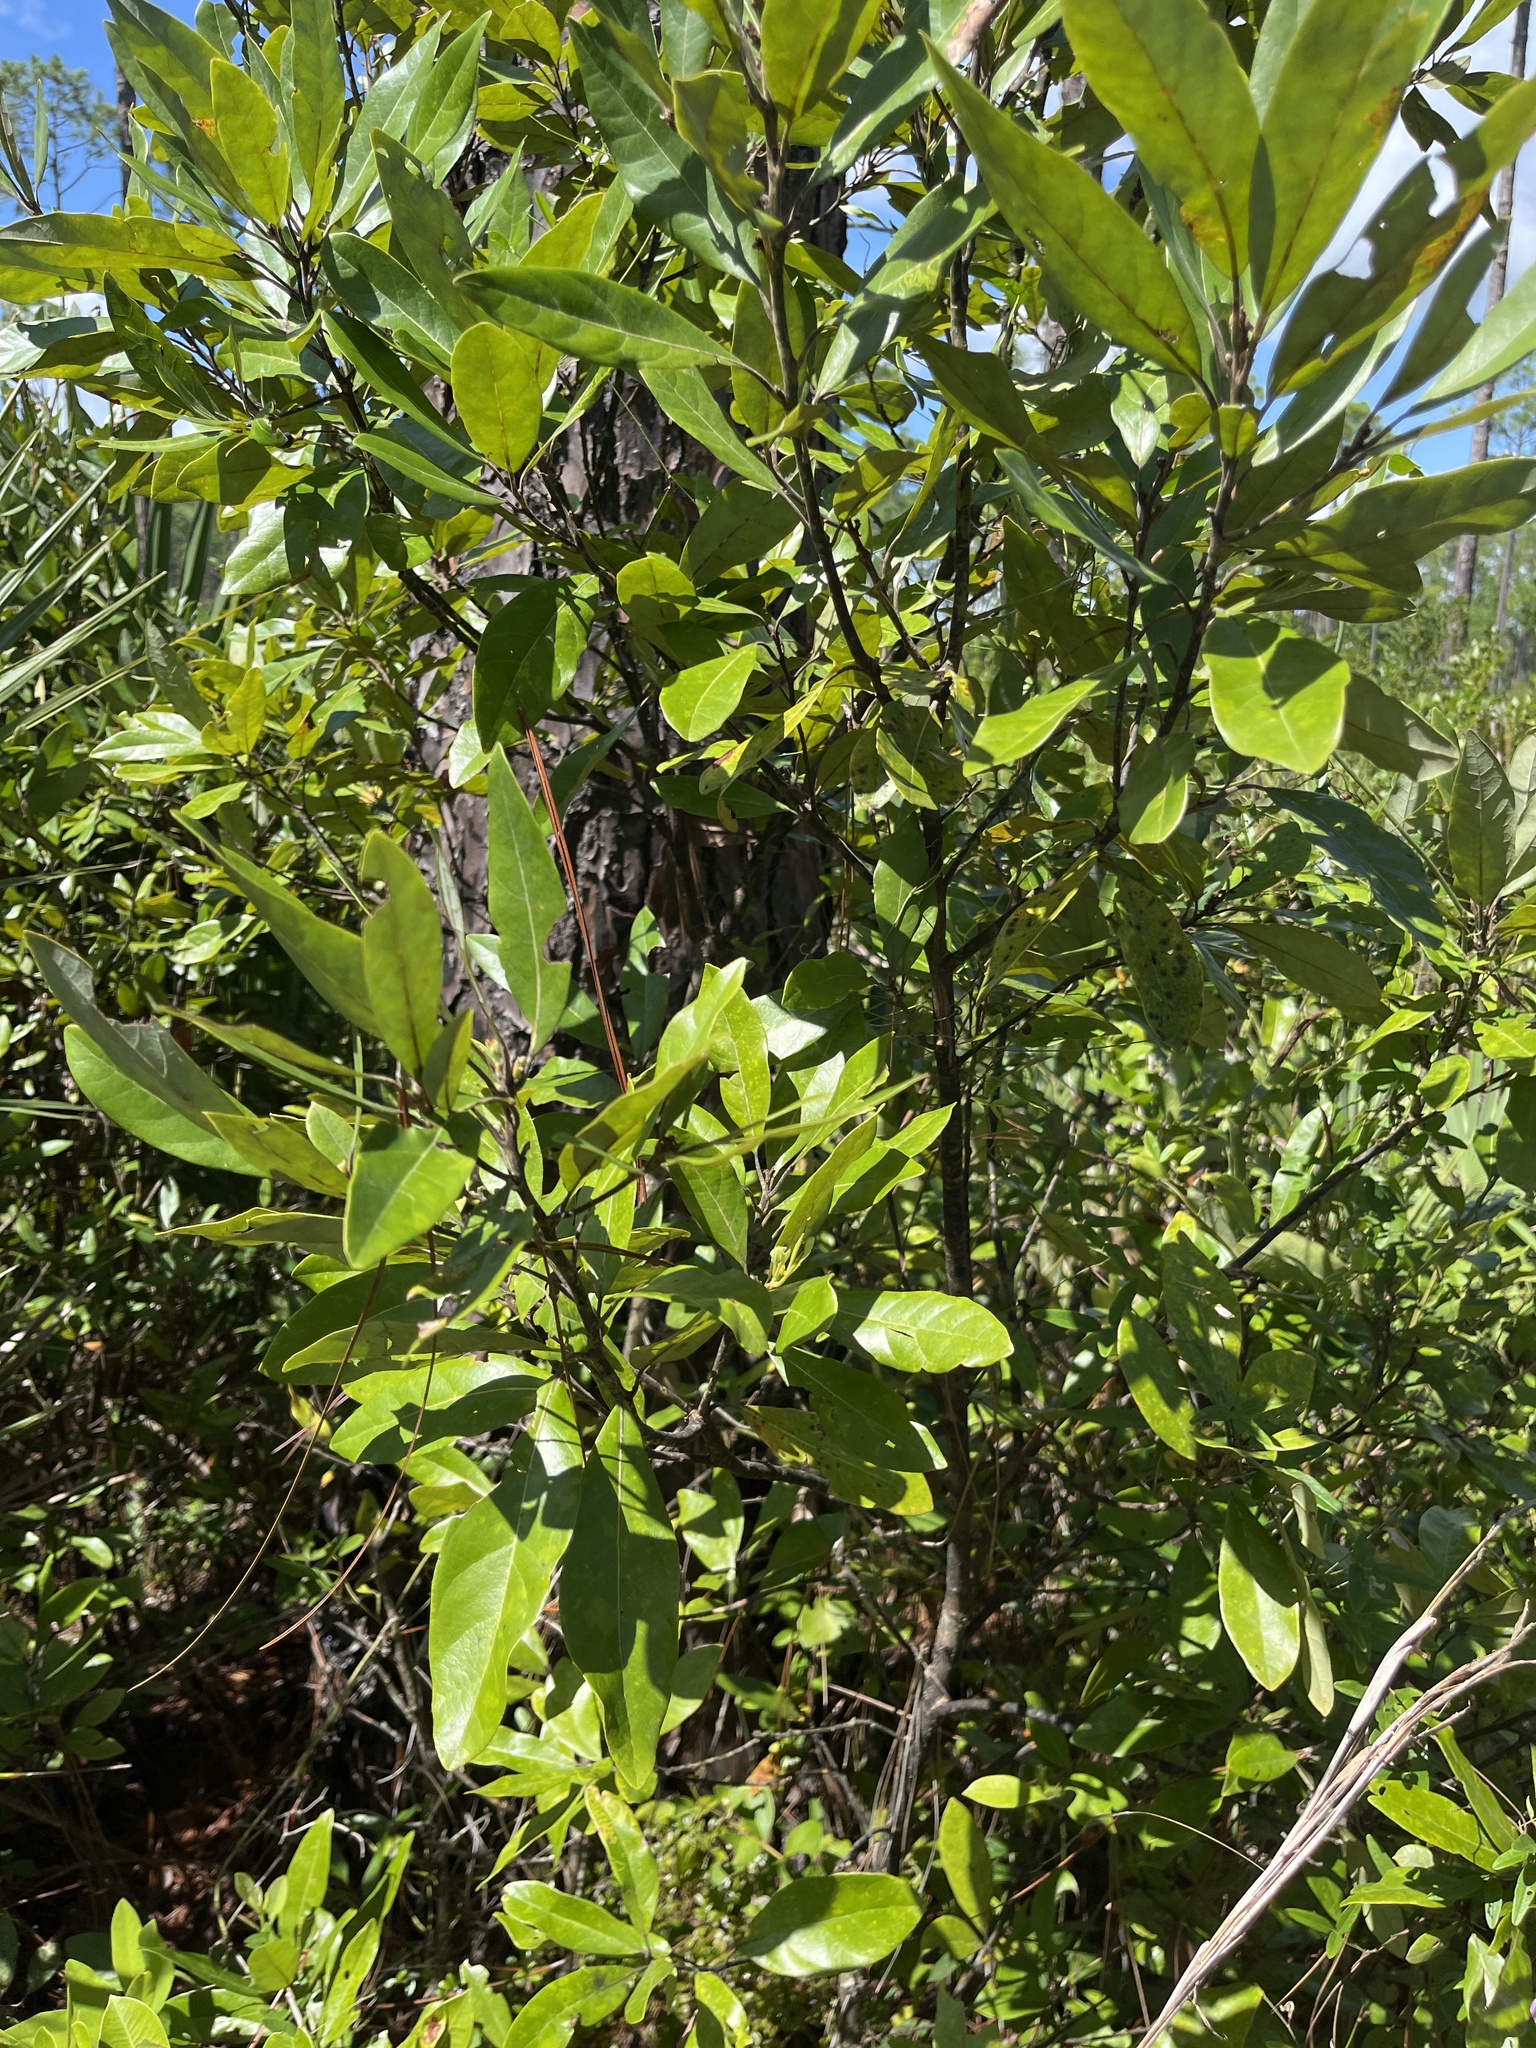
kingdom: Plantae
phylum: Tracheophyta
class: Magnoliopsida
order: Laurales
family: Lauraceae
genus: Persea
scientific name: Persea palustris
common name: Swampbay
